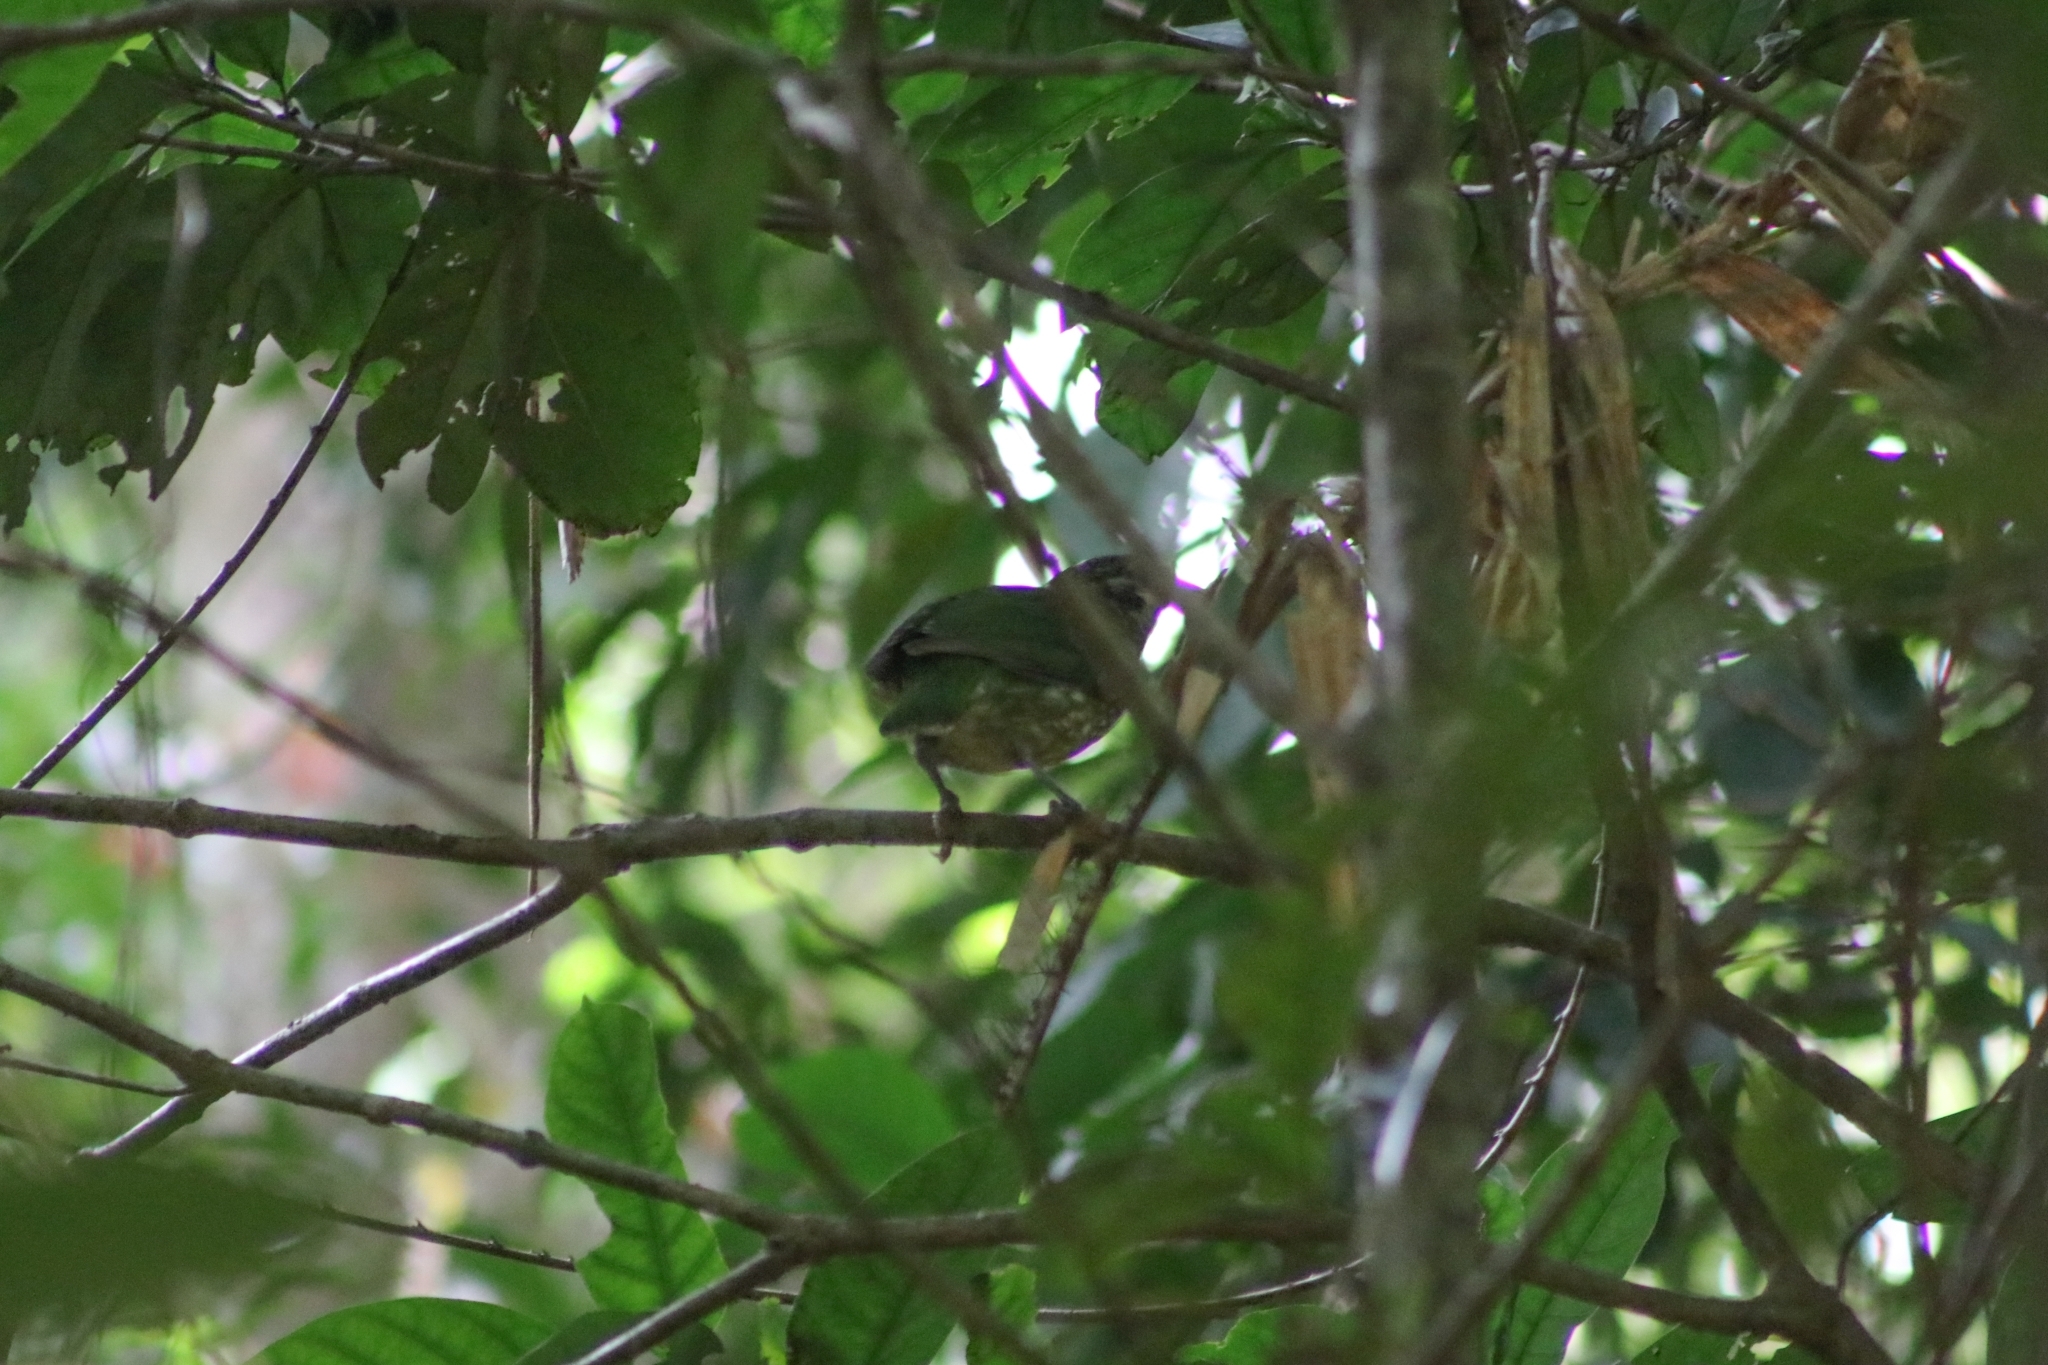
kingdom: Animalia
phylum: Chordata
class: Aves
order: Passeriformes
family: Ptilonorhynchidae
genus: Ailuroedus
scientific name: Ailuroedus maculosus
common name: Spotted catbird
